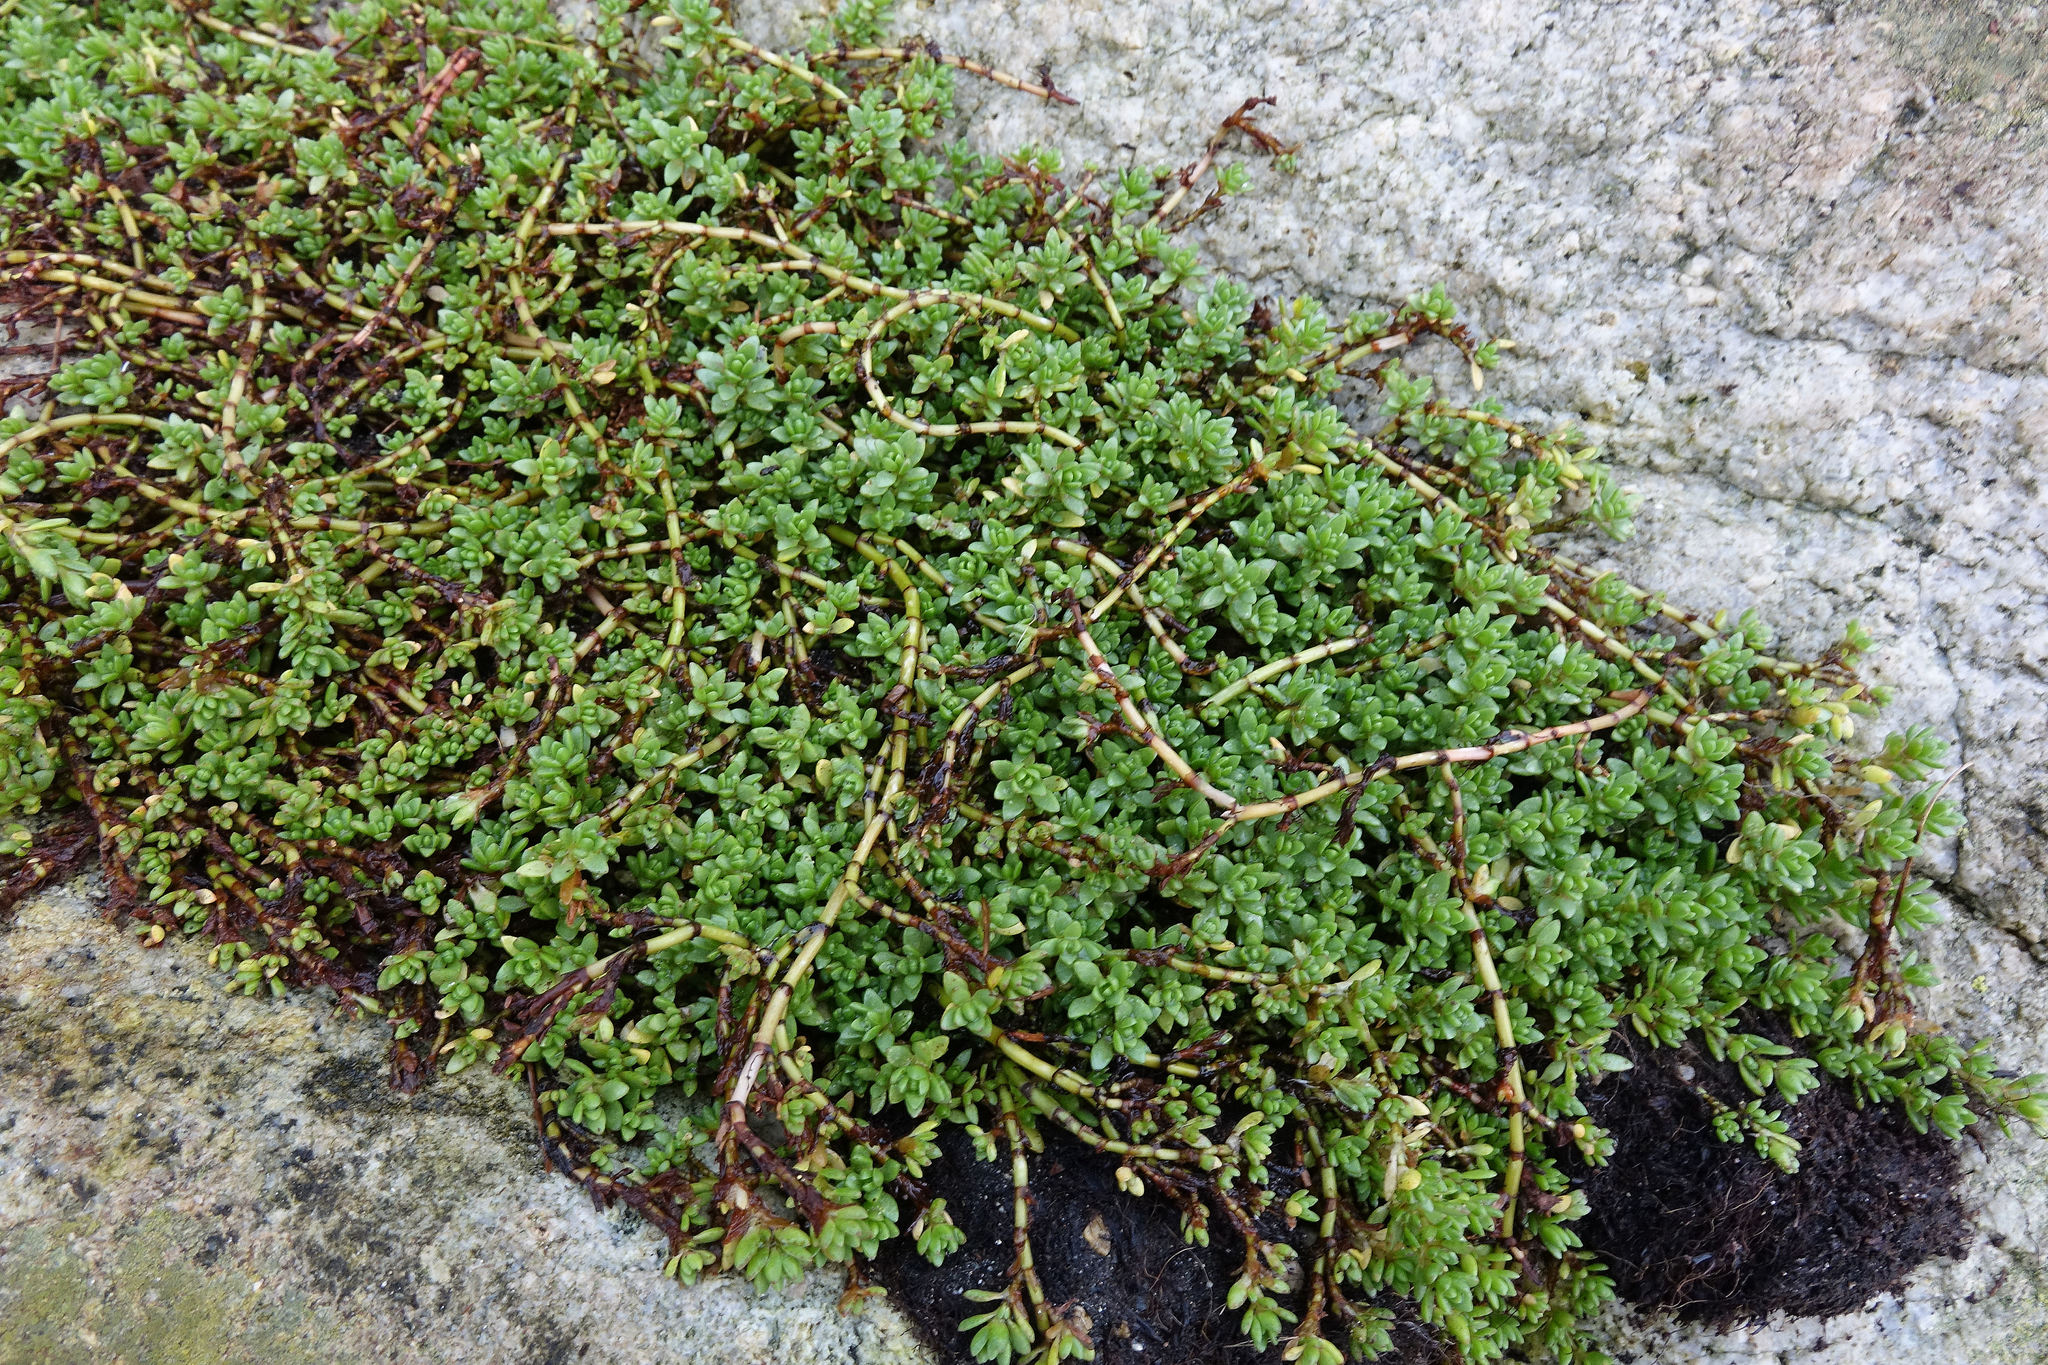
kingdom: Plantae
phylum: Tracheophyta
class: Magnoliopsida
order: Saxifragales
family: Crassulaceae
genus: Crassula
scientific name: Crassula moschata
